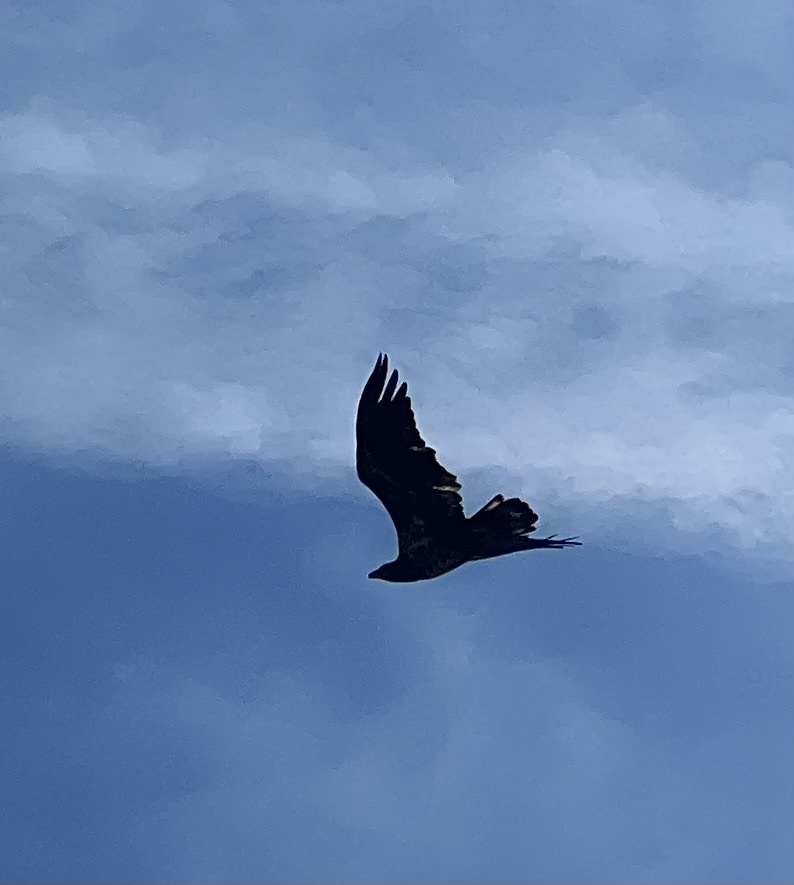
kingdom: Animalia
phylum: Chordata
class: Aves
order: Accipitriformes
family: Accipitridae
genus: Haliaeetus
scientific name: Haliaeetus leucocephalus
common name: Bald eagle
